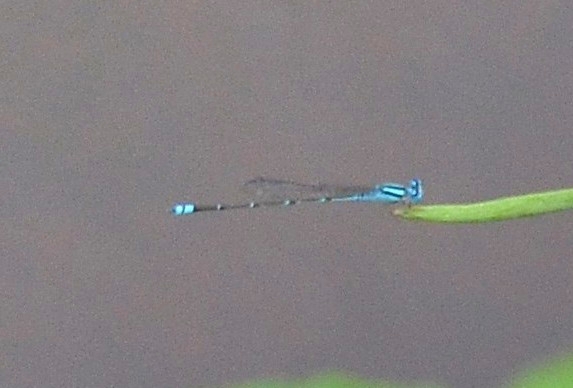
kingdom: Animalia
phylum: Arthropoda
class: Insecta
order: Odonata
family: Coenagrionidae
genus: Pseudagrion
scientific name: Pseudagrion microcephalum
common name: Blue riverdamsel
